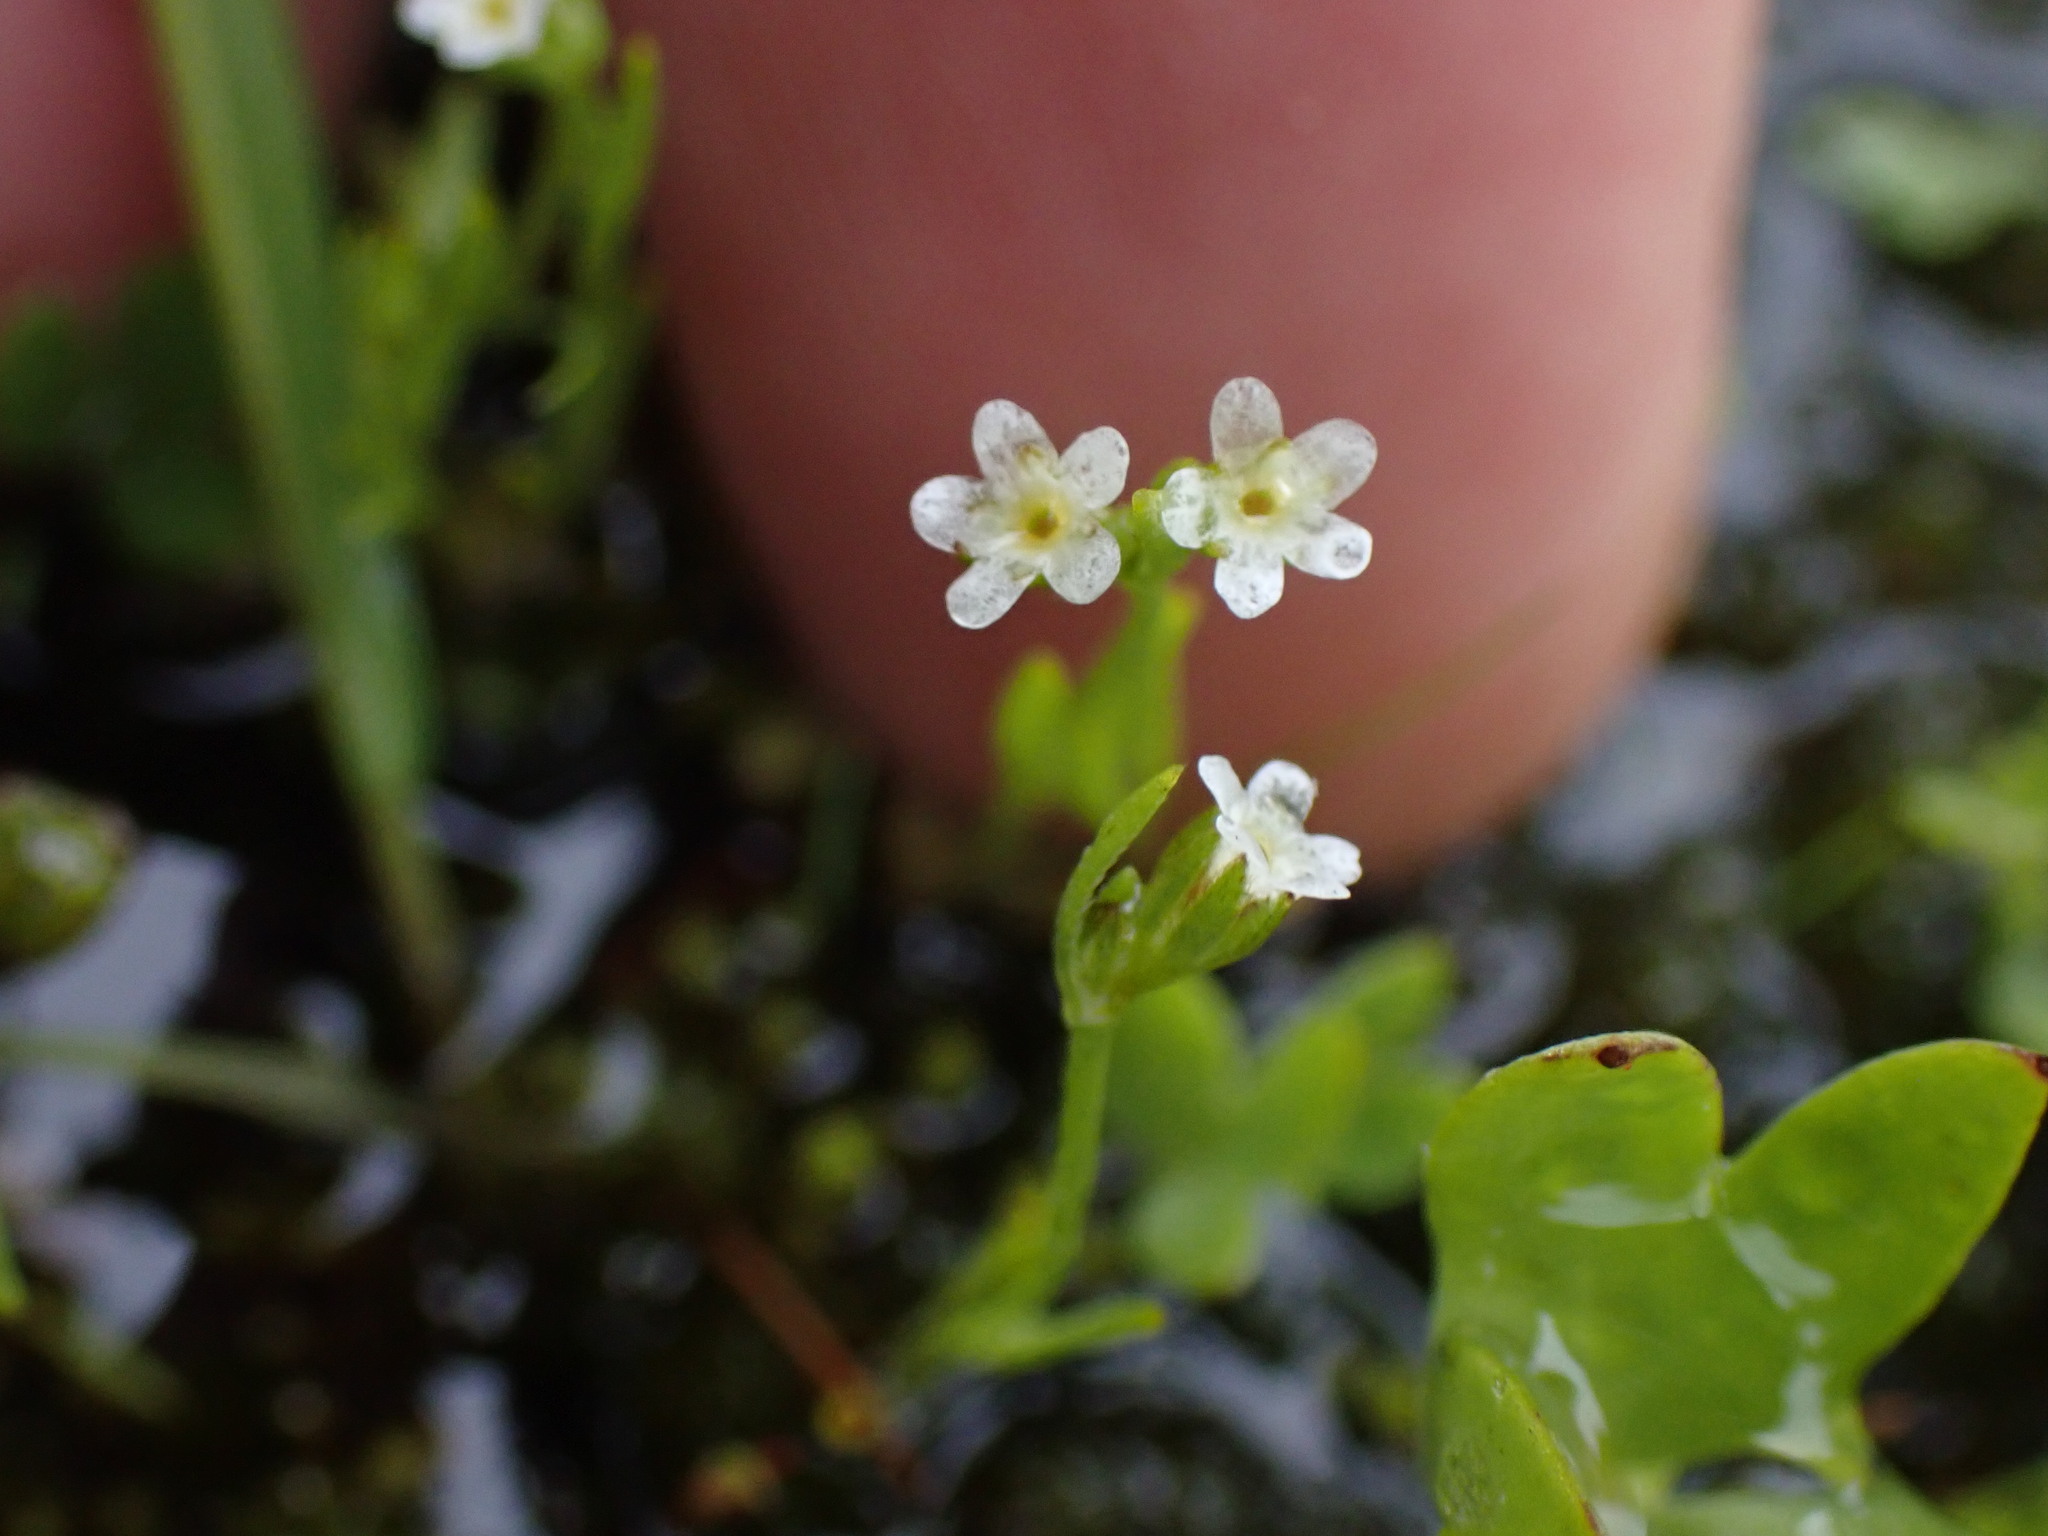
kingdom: Plantae
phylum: Tracheophyta
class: Magnoliopsida
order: Boraginales
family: Boraginaceae
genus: Plagiobothrys
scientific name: Plagiobothrys scouleri
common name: White forget-me-not
